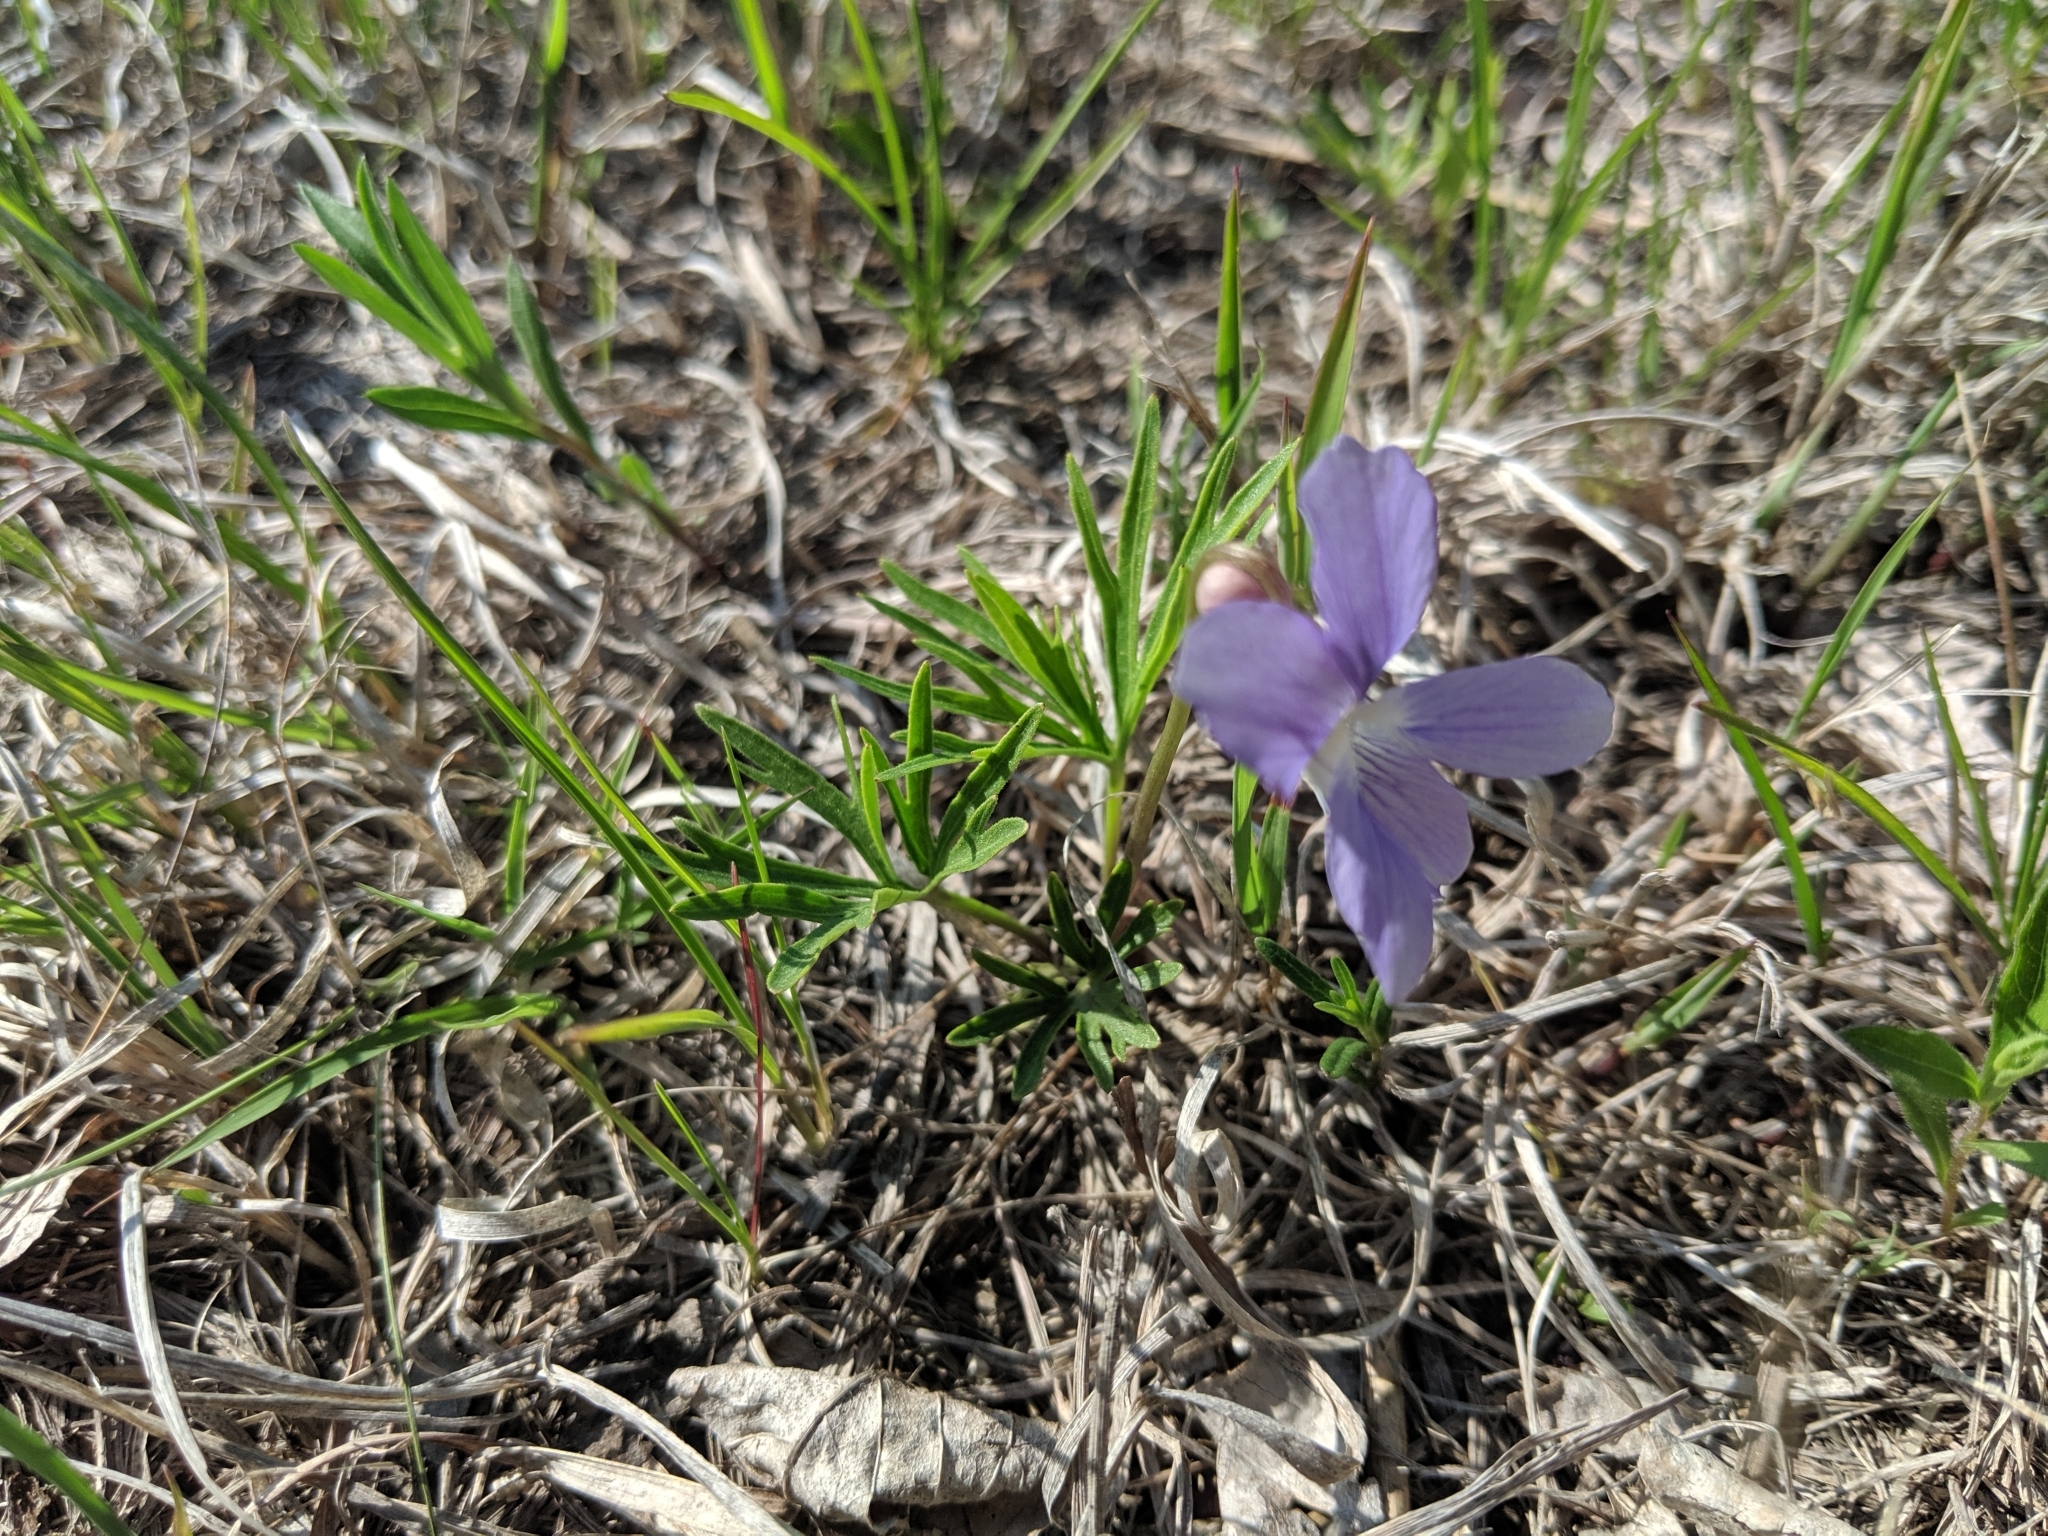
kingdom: Plantae
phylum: Tracheophyta
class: Magnoliopsida
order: Malpighiales
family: Violaceae
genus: Viola
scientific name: Viola pedatifida
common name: Prairie violet
